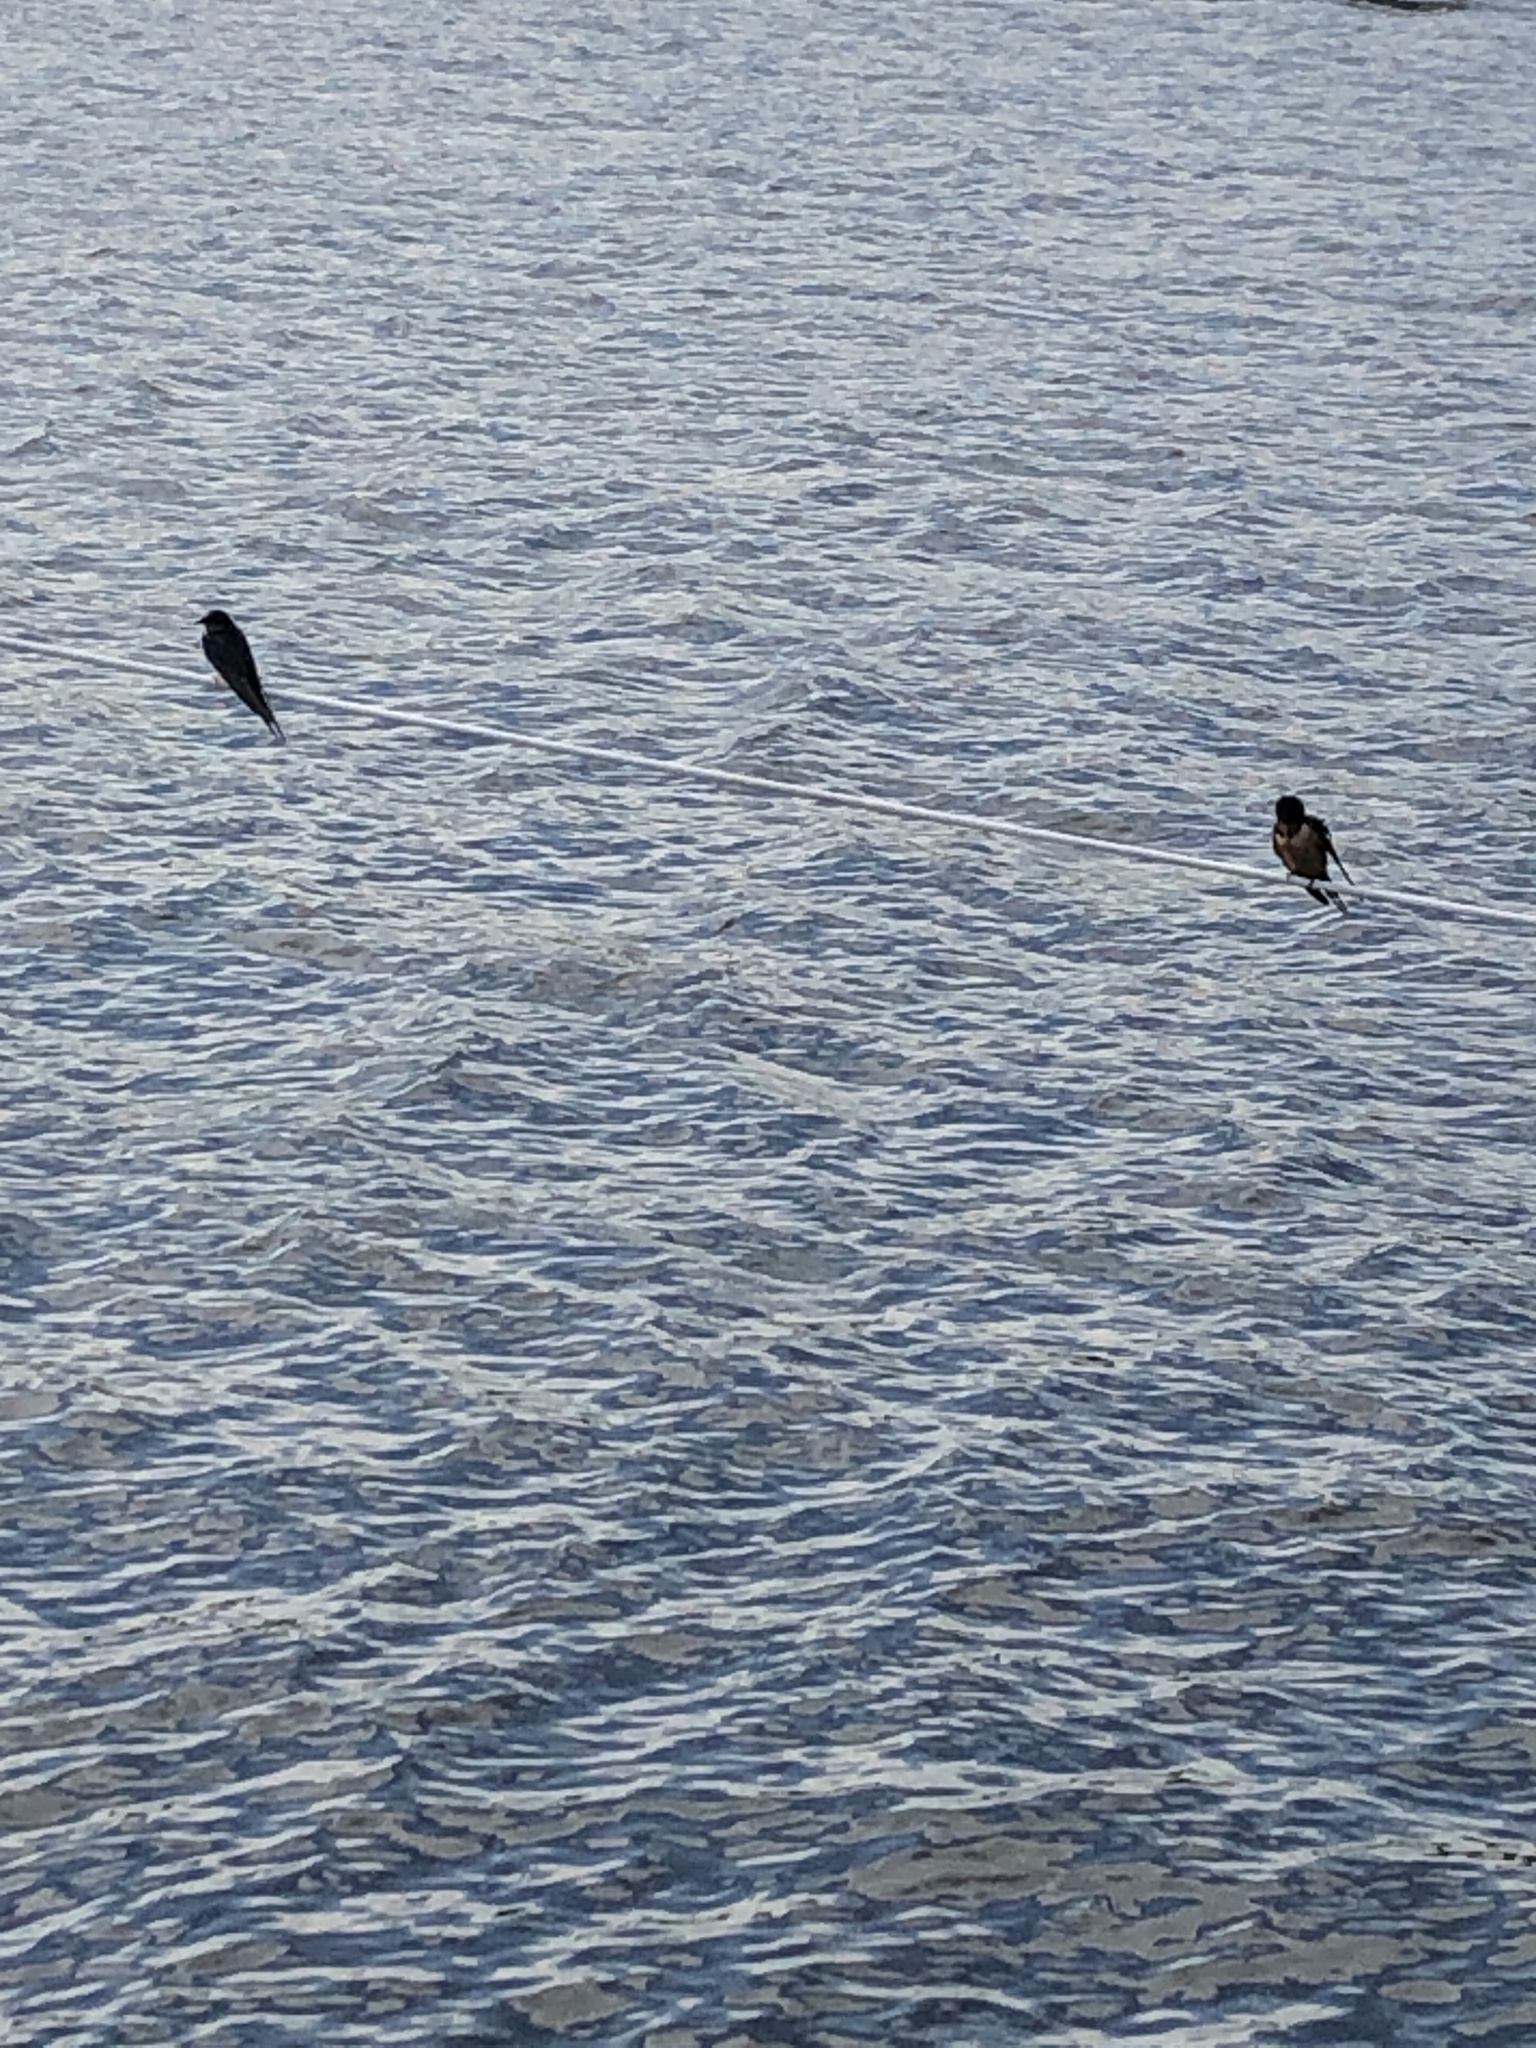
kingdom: Animalia
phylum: Chordata
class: Aves
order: Passeriformes
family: Hirundinidae
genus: Hirundo
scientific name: Hirundo rustica
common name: Barn swallow
